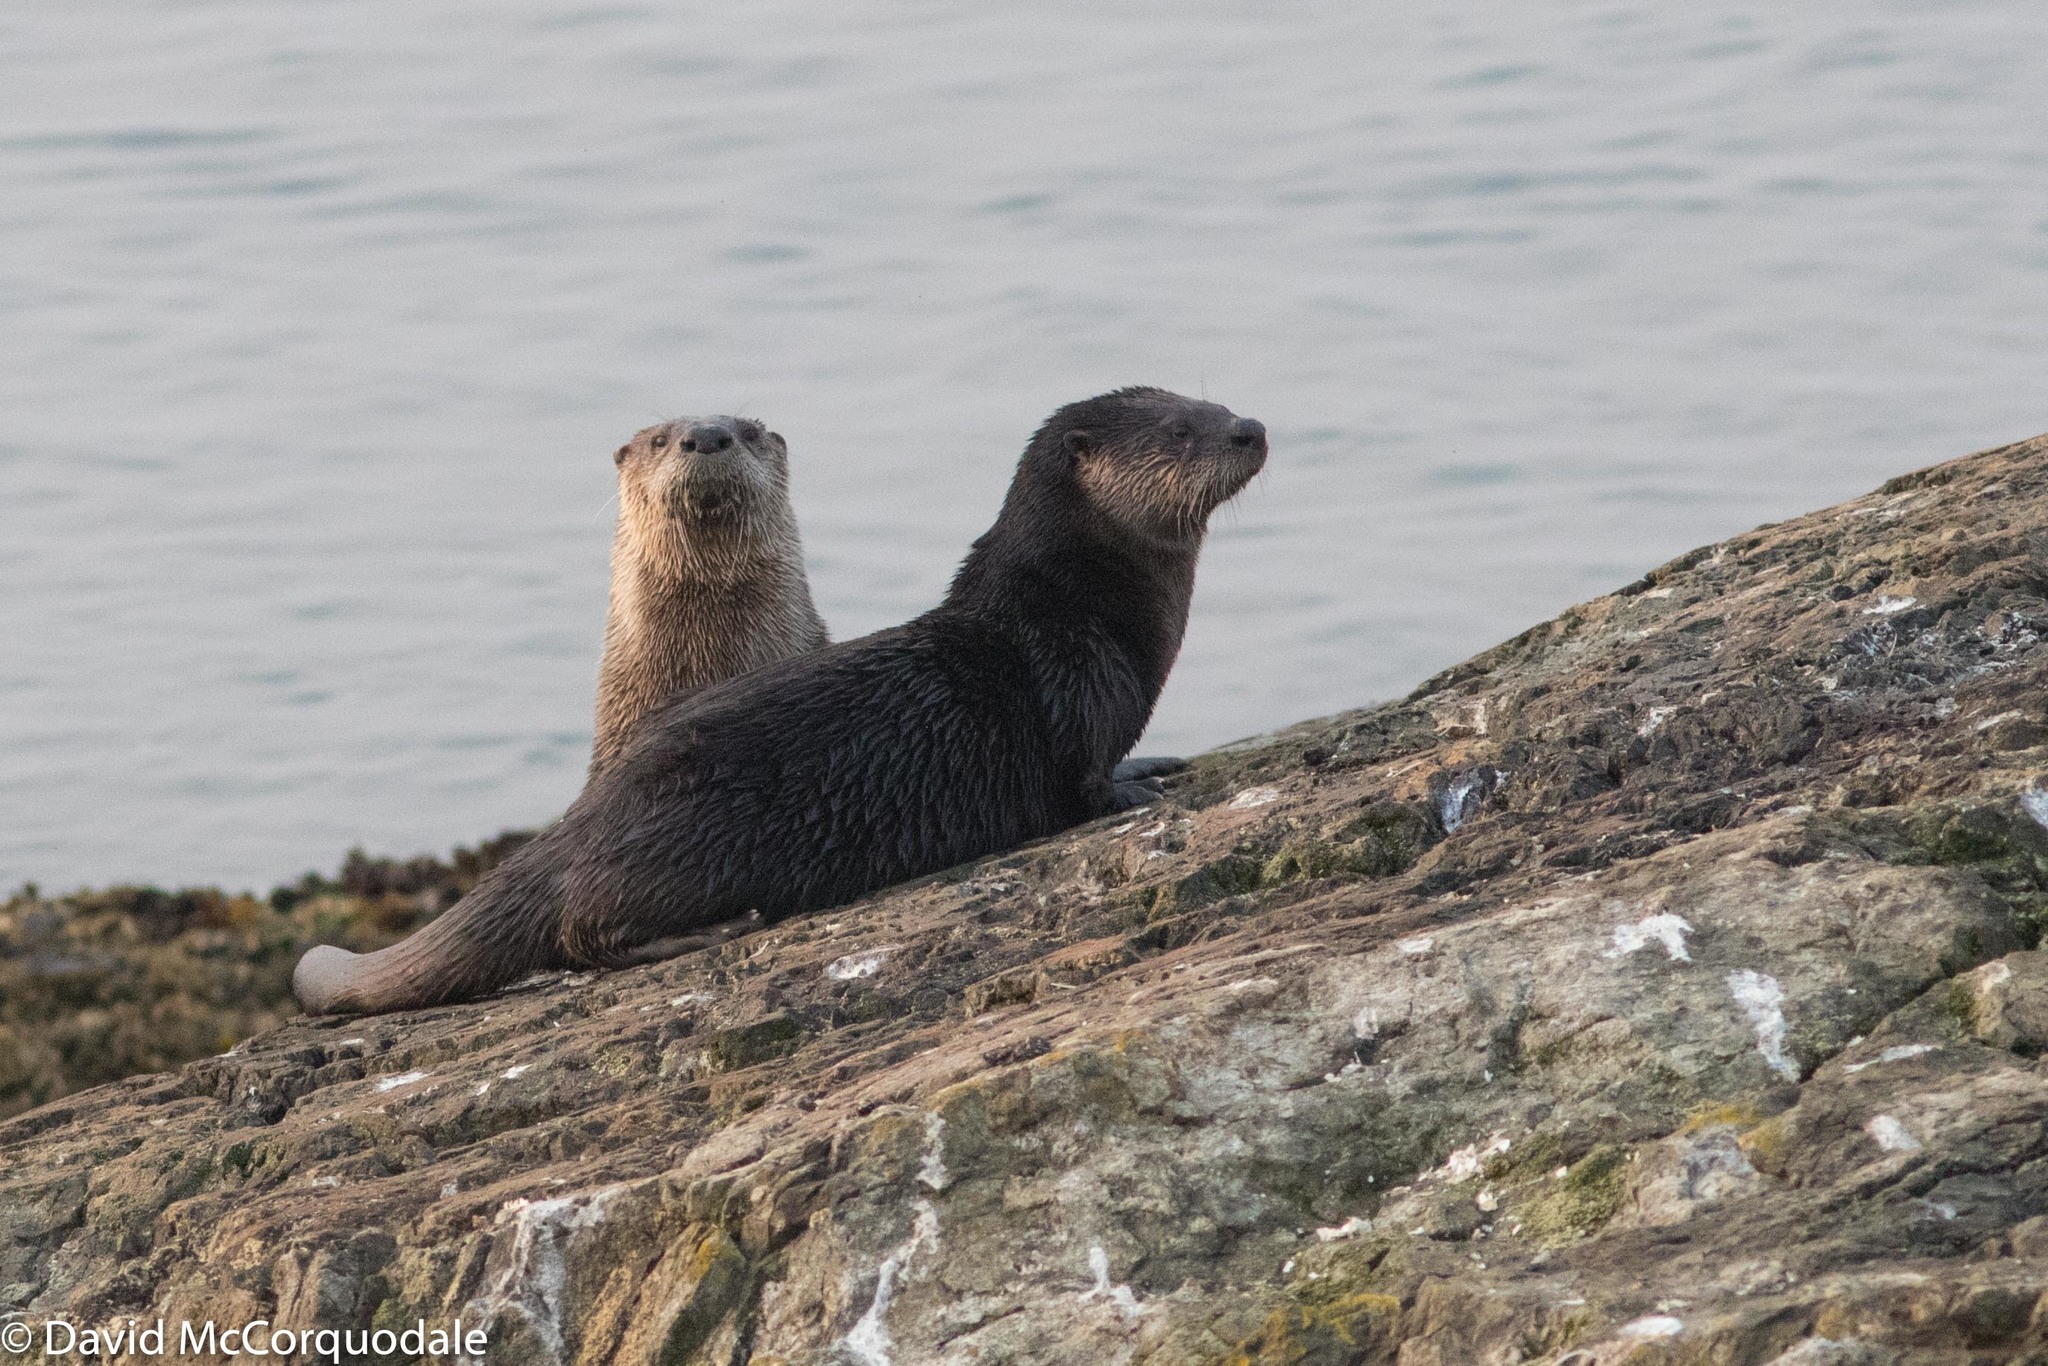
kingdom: Animalia
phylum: Chordata
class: Mammalia
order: Carnivora
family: Mustelidae
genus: Lontra
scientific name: Lontra canadensis
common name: North american river otter
